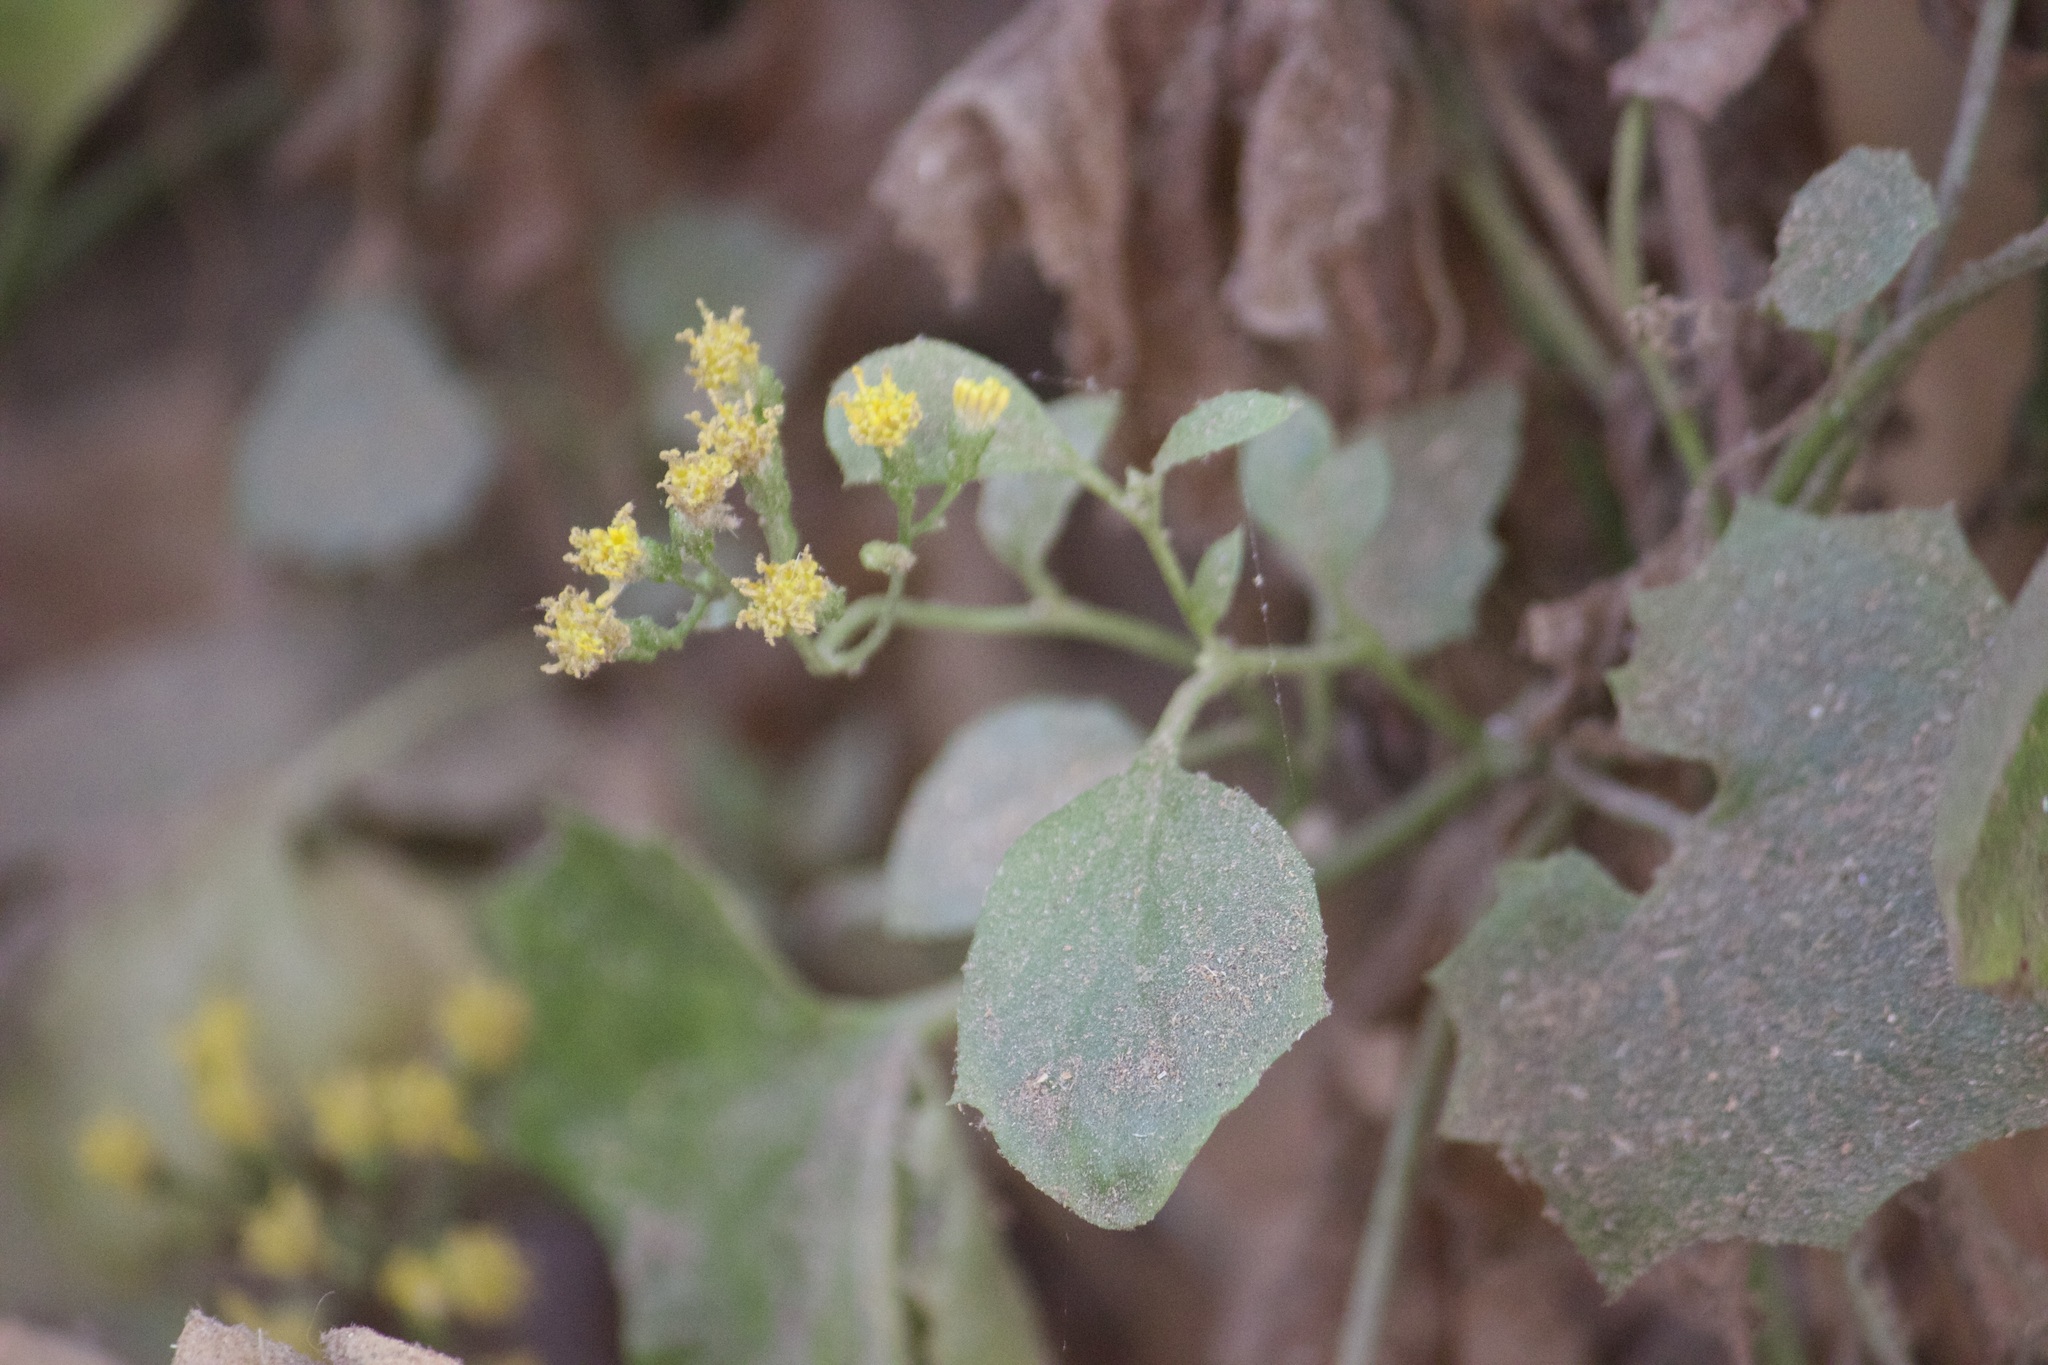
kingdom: Plantae
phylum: Tracheophyta
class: Magnoliopsida
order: Asterales
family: Asteraceae
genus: Delairea
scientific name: Delairea odorata
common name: Cape-ivy
